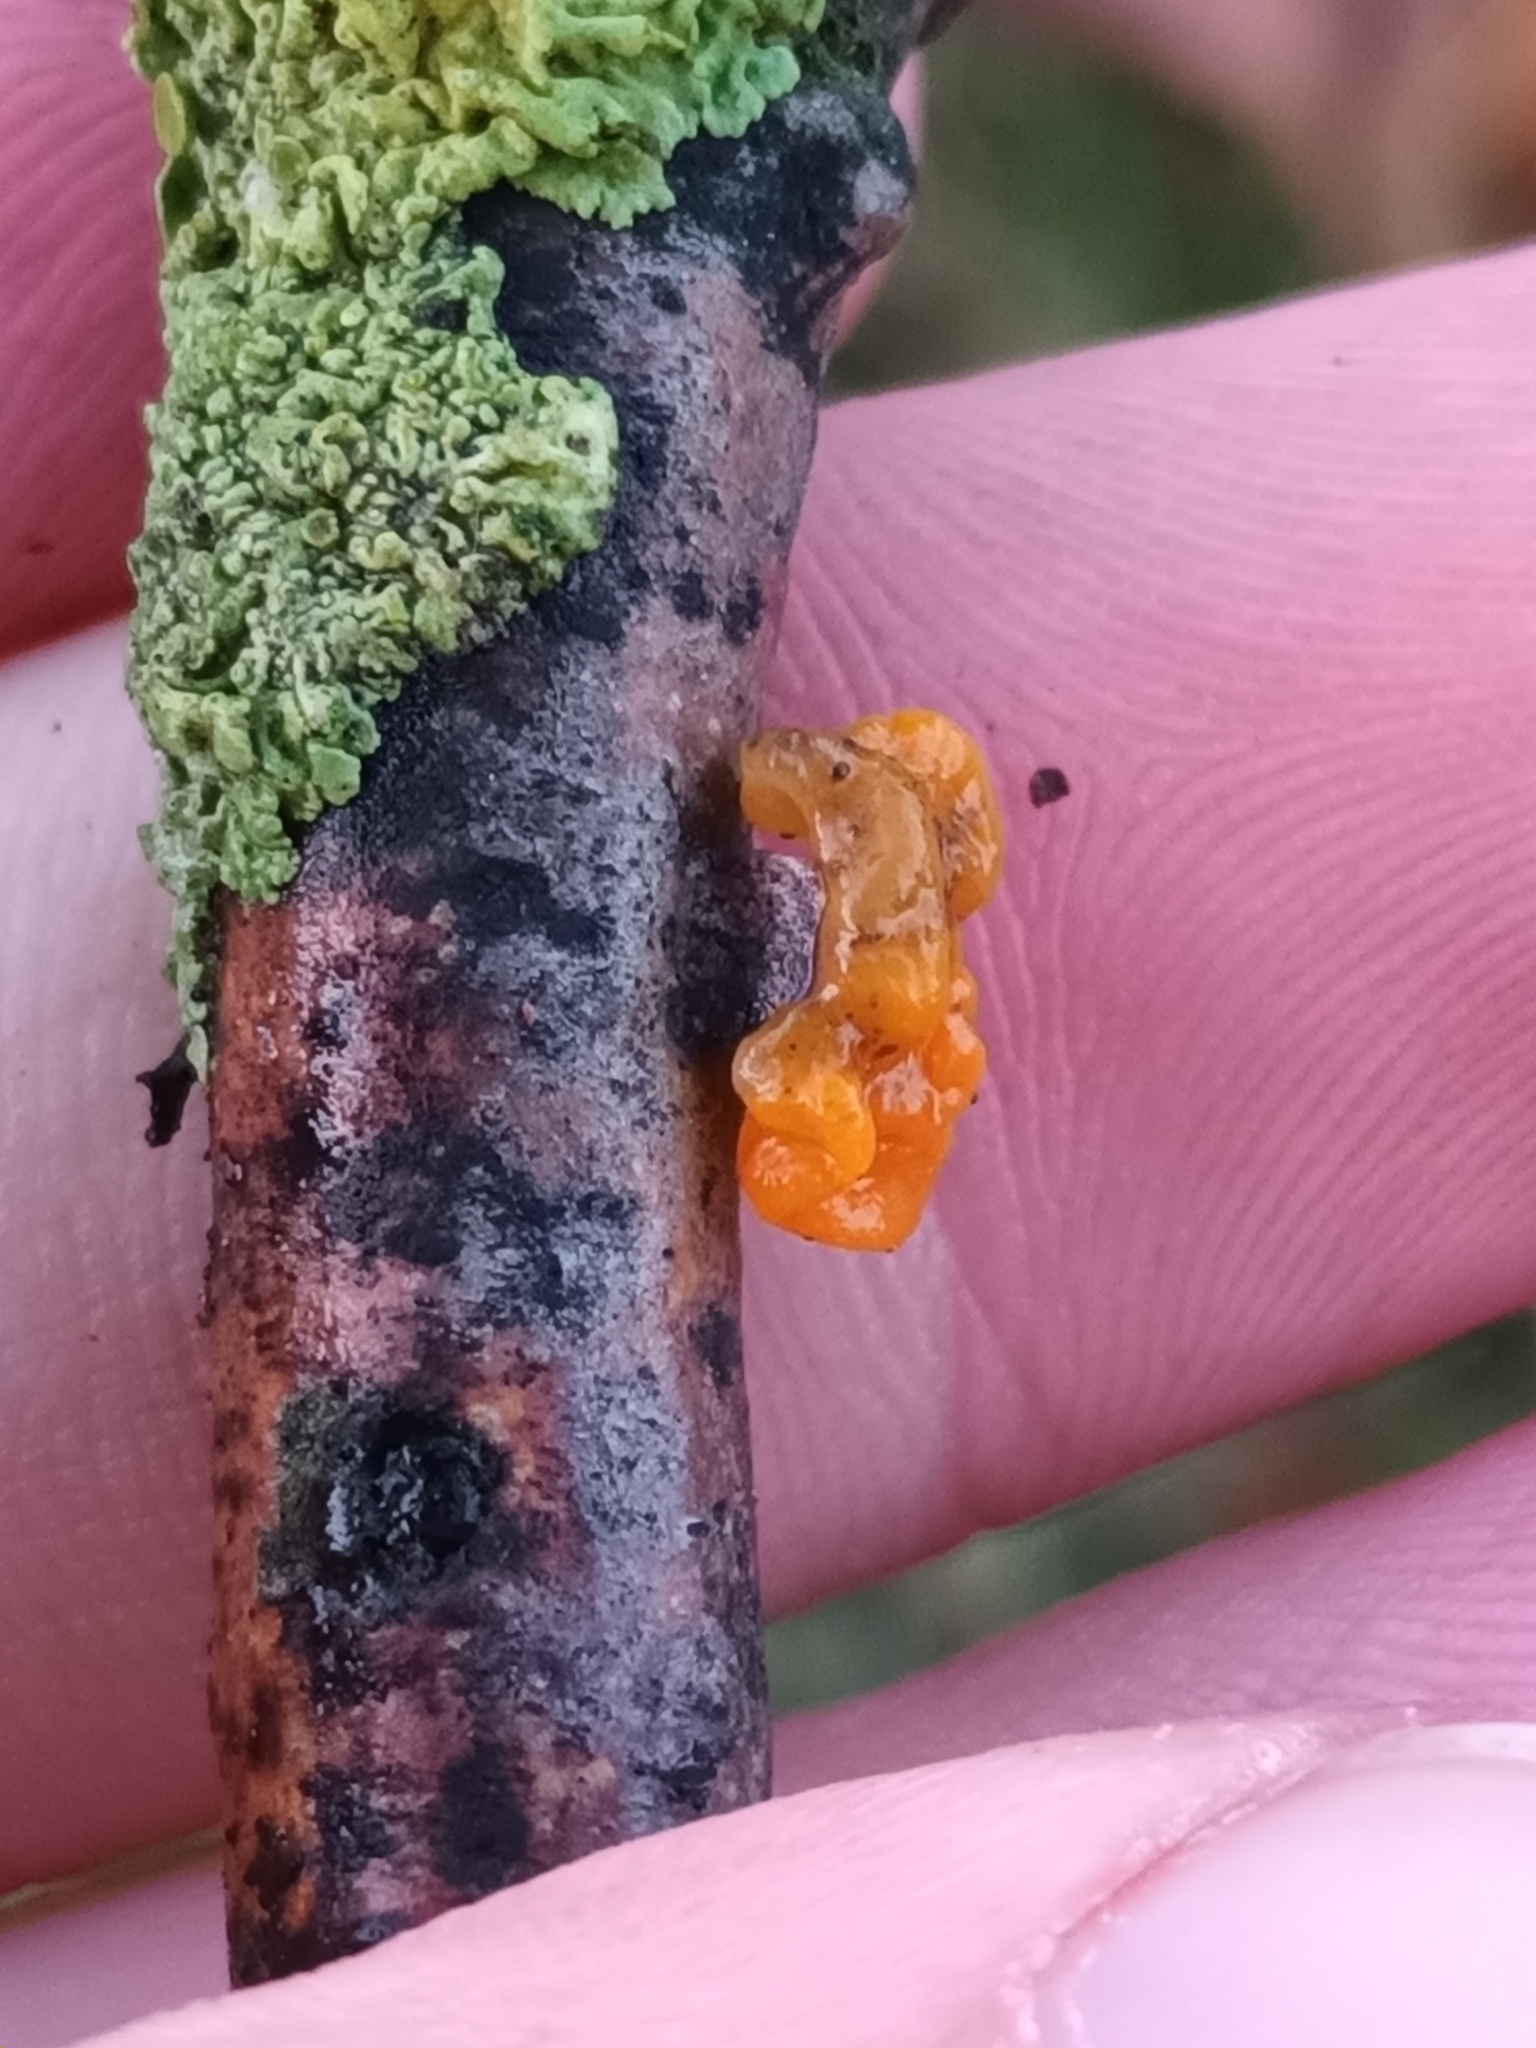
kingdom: Fungi
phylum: Basidiomycota
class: Tremellomycetes
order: Tremellales
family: Tremellaceae
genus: Tremella
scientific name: Tremella mesenterica
